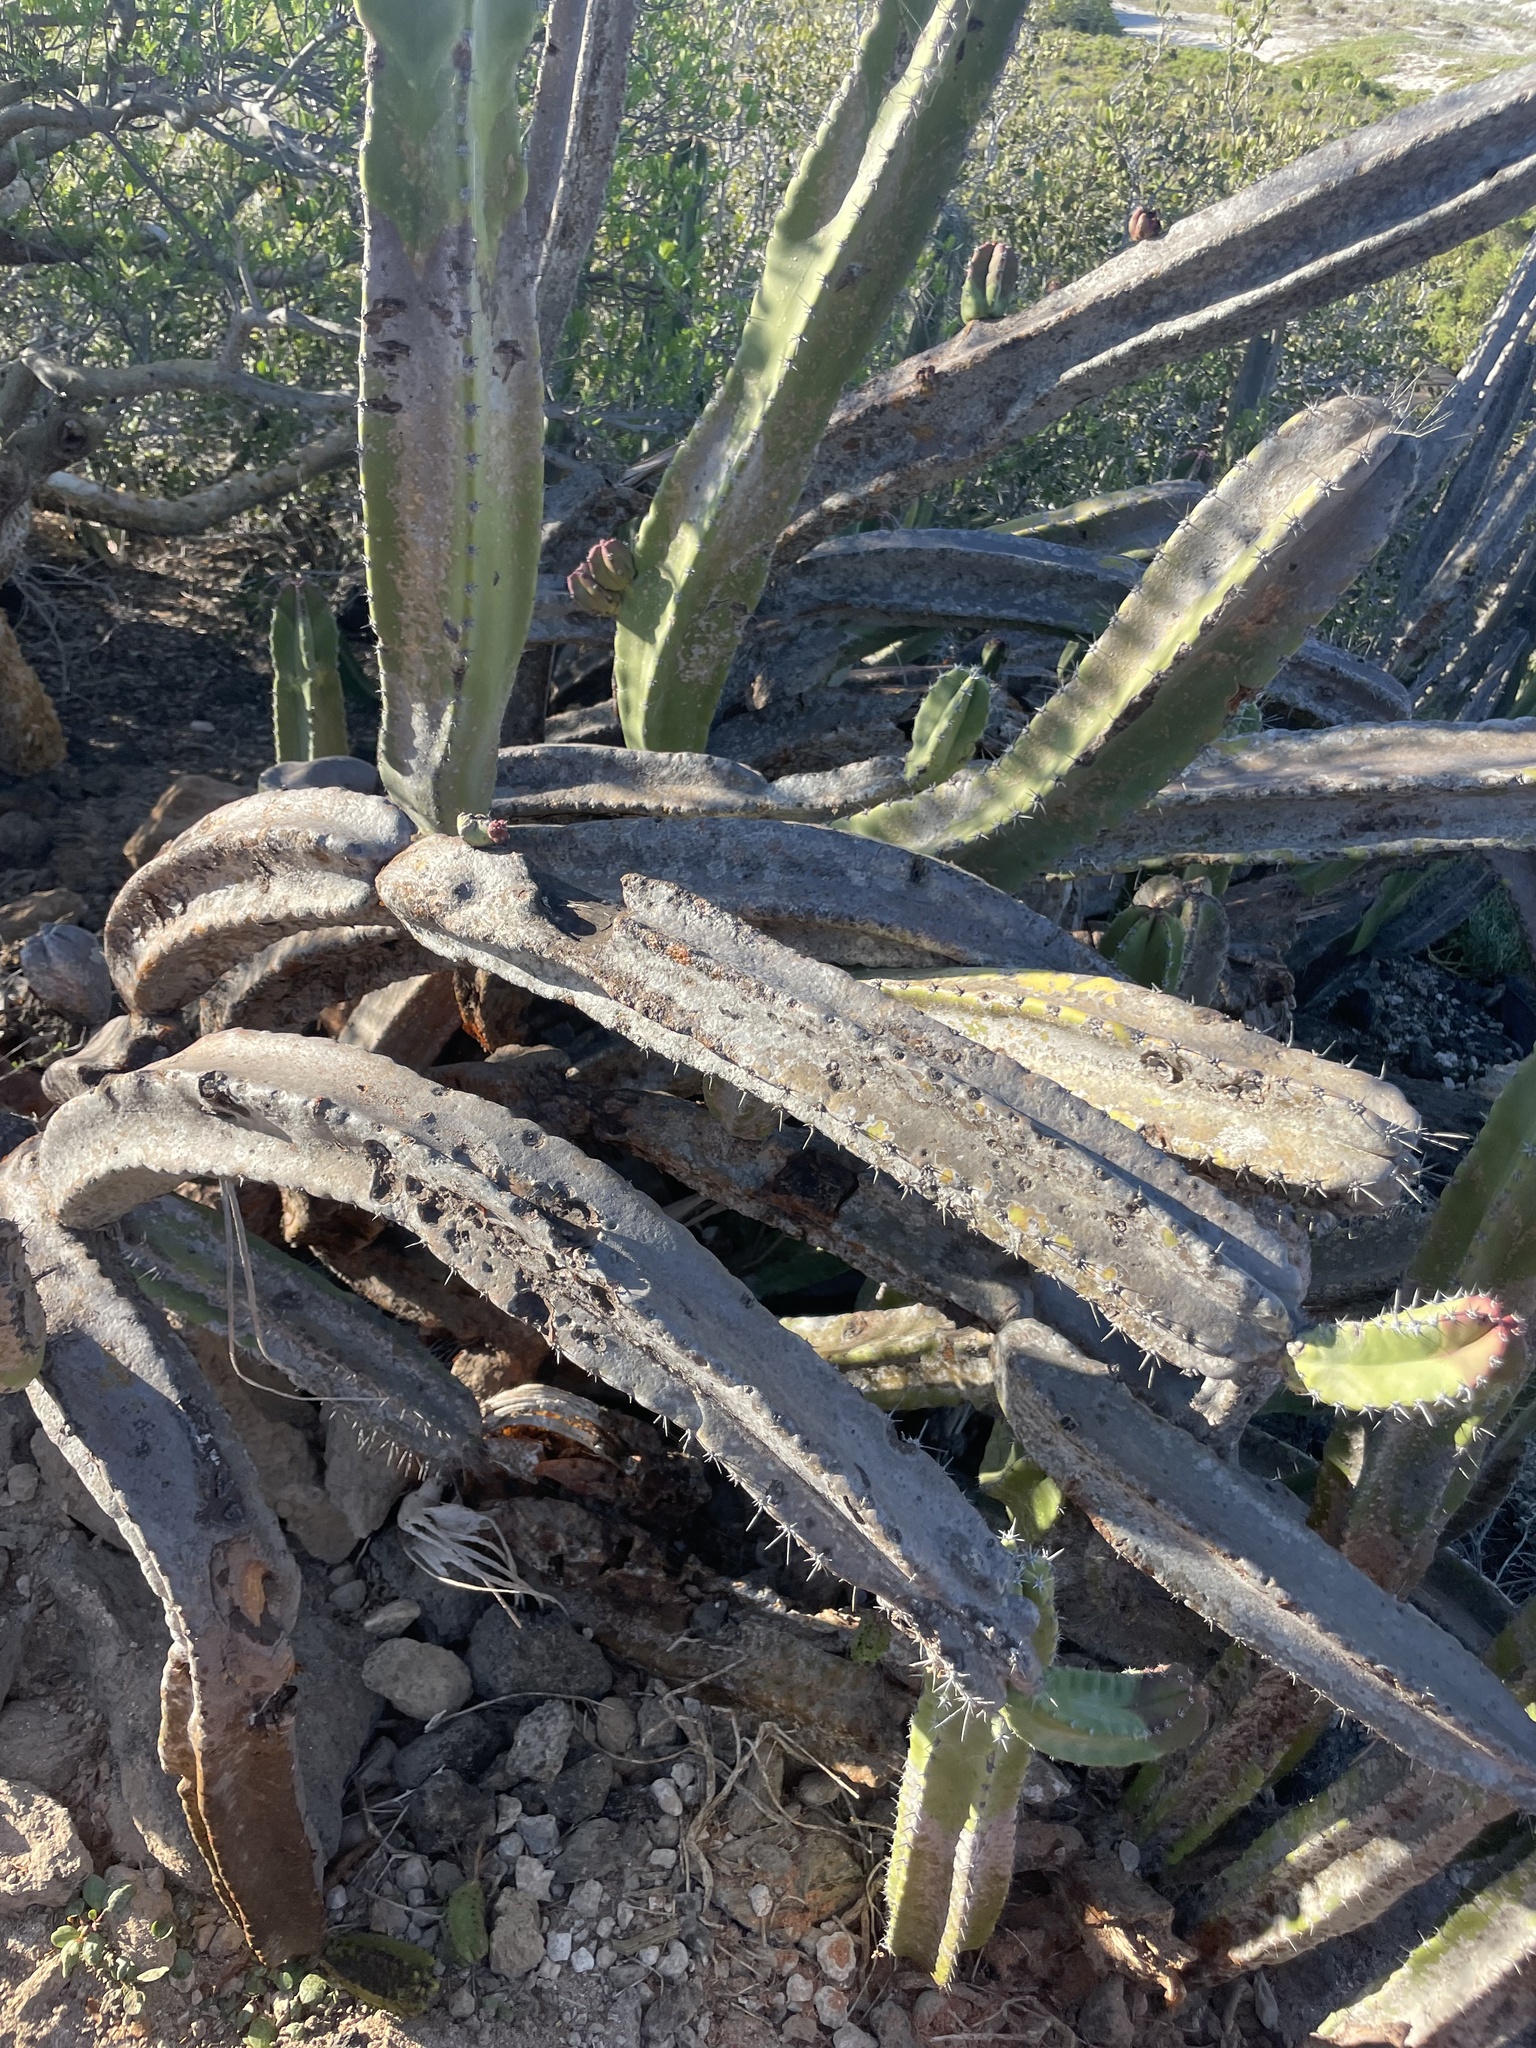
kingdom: Plantae
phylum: Tracheophyta
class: Magnoliopsida
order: Caryophyllales
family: Cactaceae
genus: Pachycereus
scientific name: Pachycereus schottii
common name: Senita cactus
